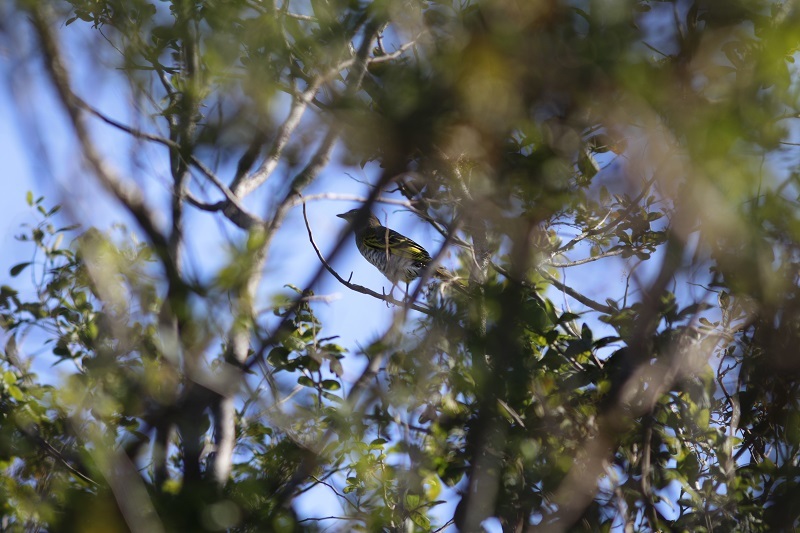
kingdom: Animalia
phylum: Chordata
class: Aves
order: Passeriformes
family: Campephagidae
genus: Campephaga
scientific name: Campephaga flava
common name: Black cuckooshrike
